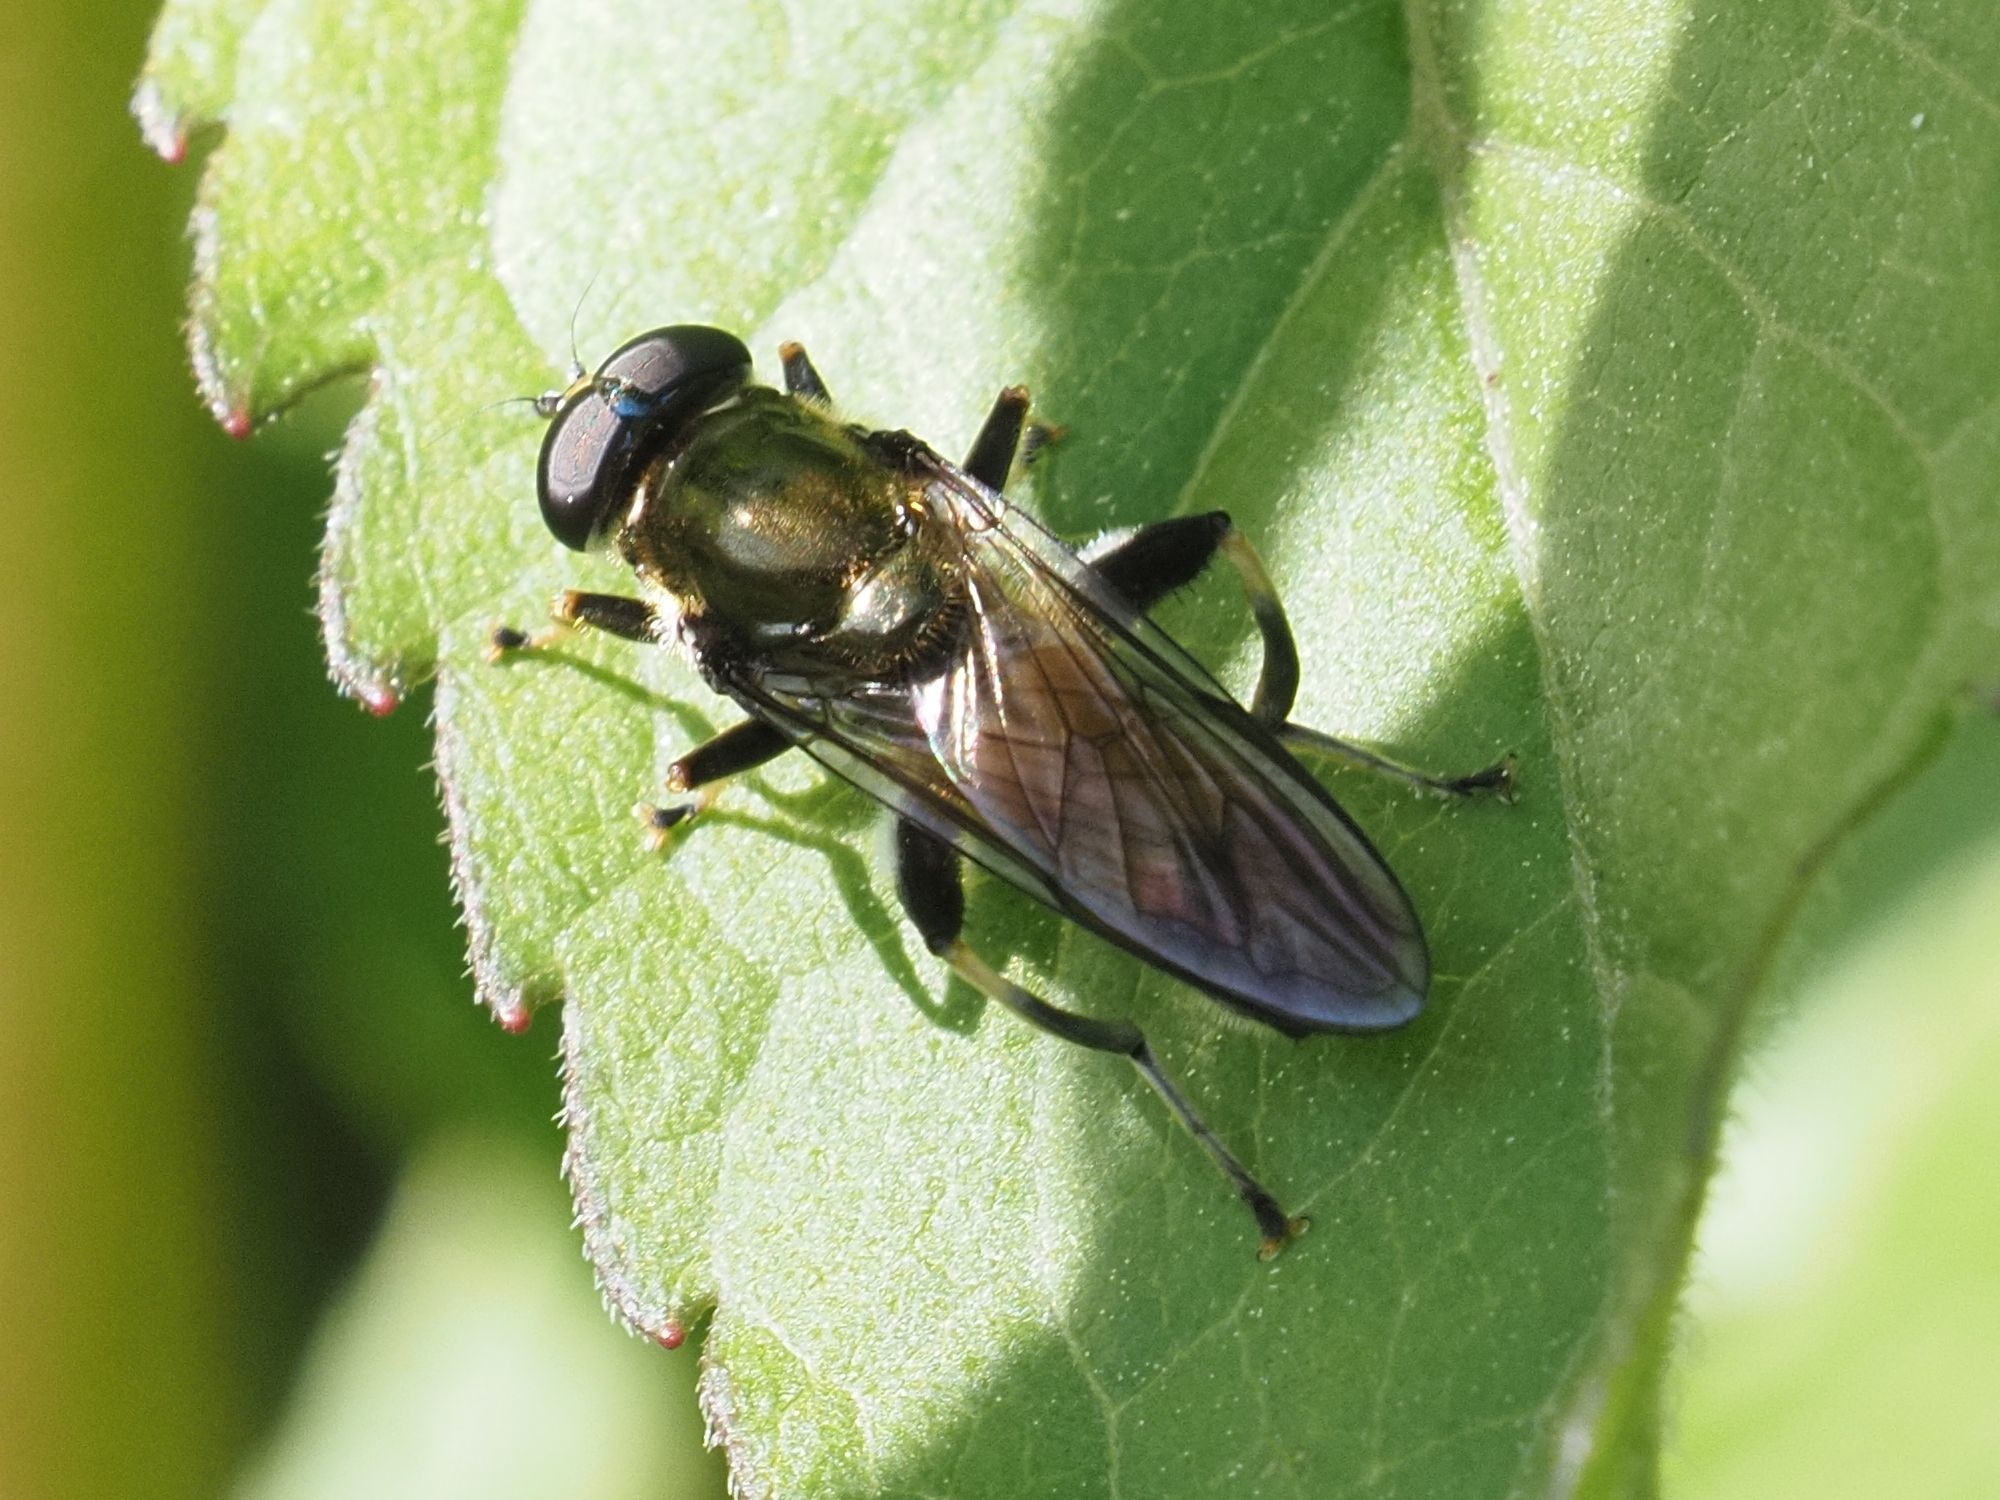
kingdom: Animalia
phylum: Arthropoda
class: Insecta
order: Diptera
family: Syrphidae
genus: Xylota
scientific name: Xylota segnis
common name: Brown-toed forest fly
